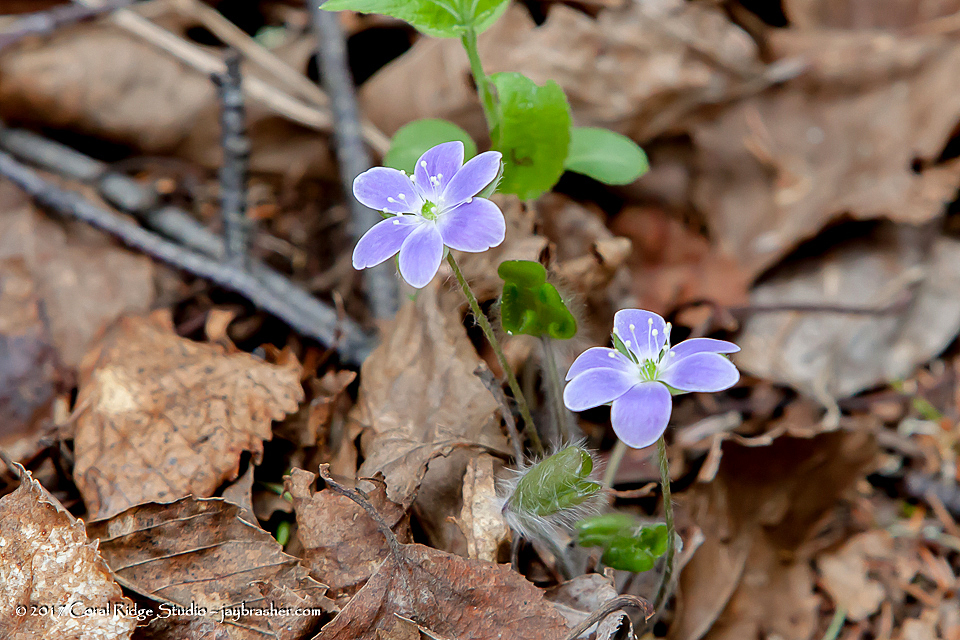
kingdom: Plantae
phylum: Tracheophyta
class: Magnoliopsida
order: Ranunculales
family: Ranunculaceae
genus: Hepatica
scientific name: Hepatica americana
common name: American hepatica
